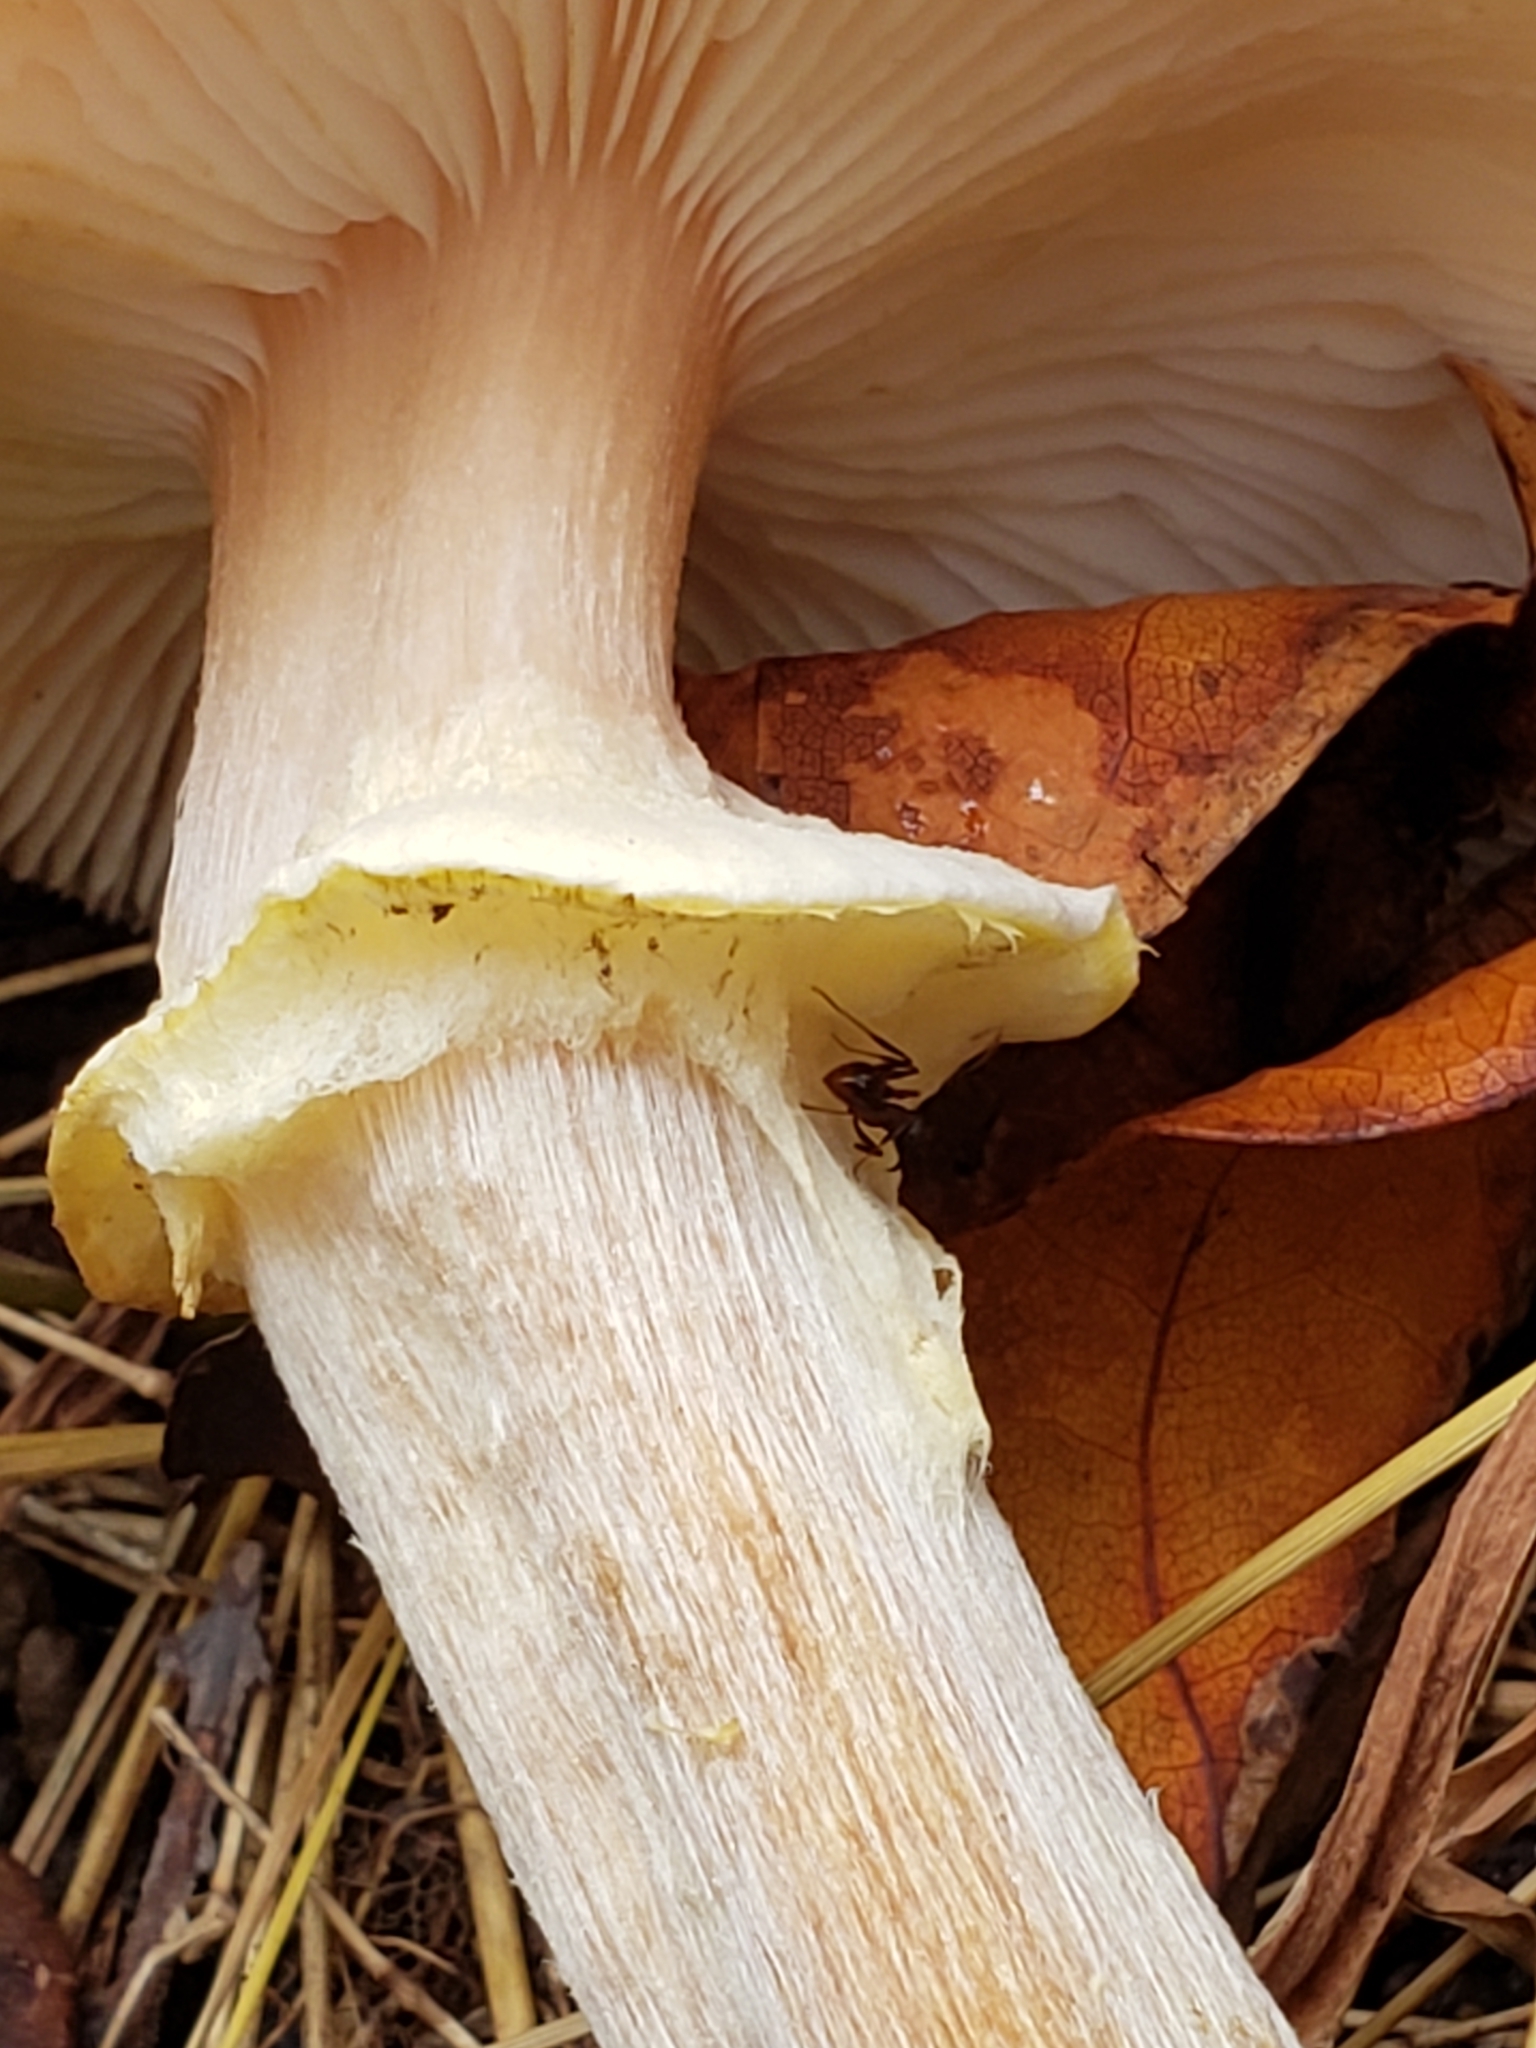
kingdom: Fungi
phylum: Basidiomycota
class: Agaricomycetes
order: Agaricales
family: Physalacriaceae
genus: Armillaria
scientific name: Armillaria mellea
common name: Honey fungus
